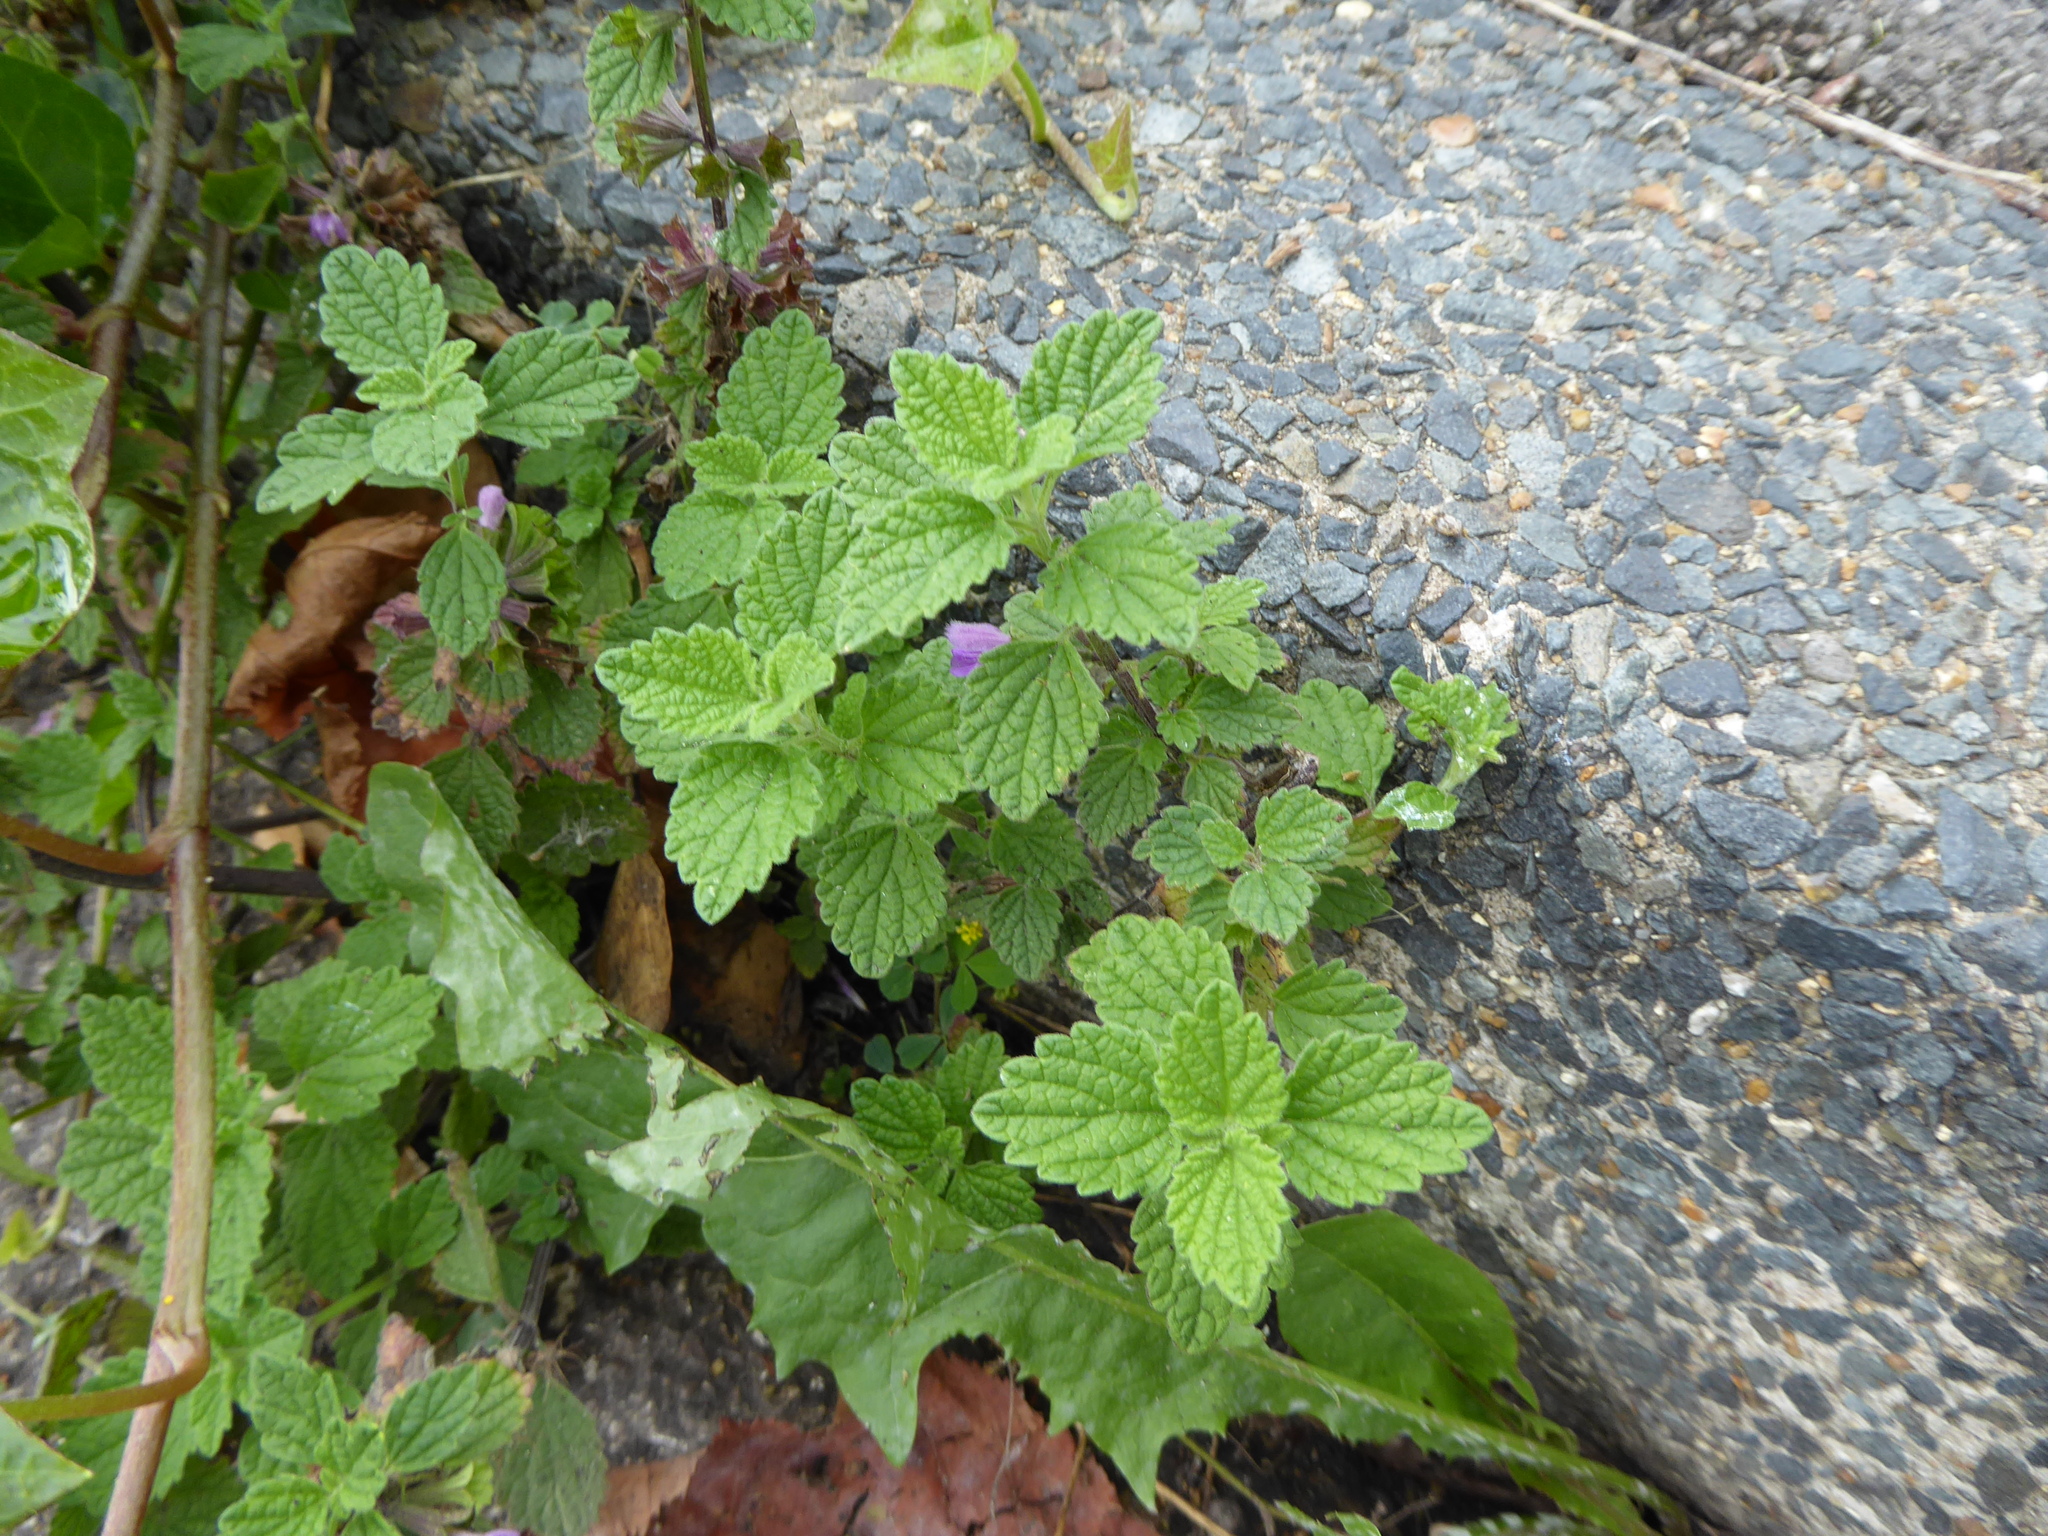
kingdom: Plantae
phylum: Tracheophyta
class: Magnoliopsida
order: Lamiales
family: Lamiaceae
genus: Ballota
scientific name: Ballota nigra
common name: Black horehound
